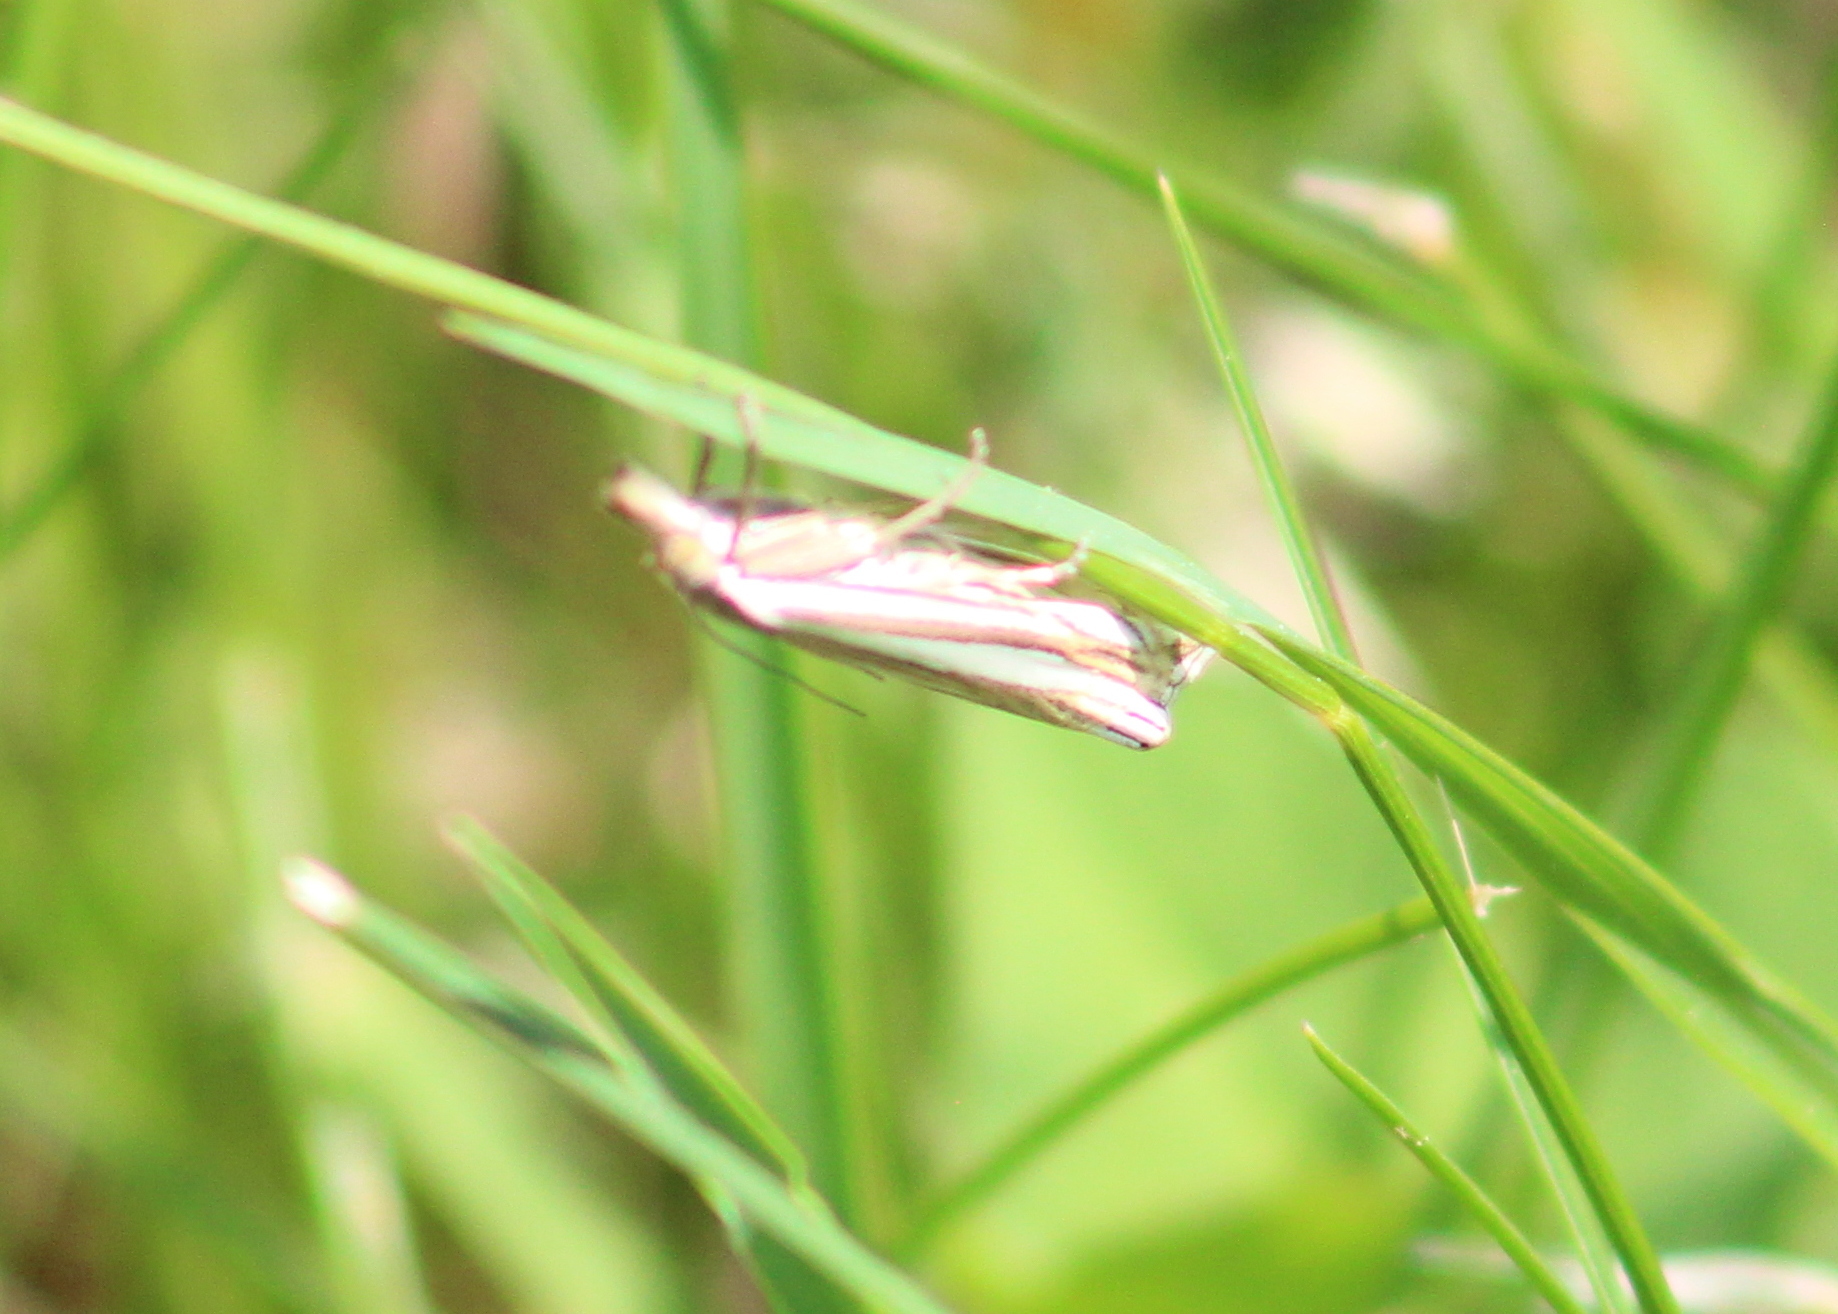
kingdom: Animalia
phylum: Arthropoda
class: Insecta
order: Lepidoptera
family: Crambidae
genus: Crambus
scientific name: Crambus laqueatellus
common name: Eastern grass-veneer
